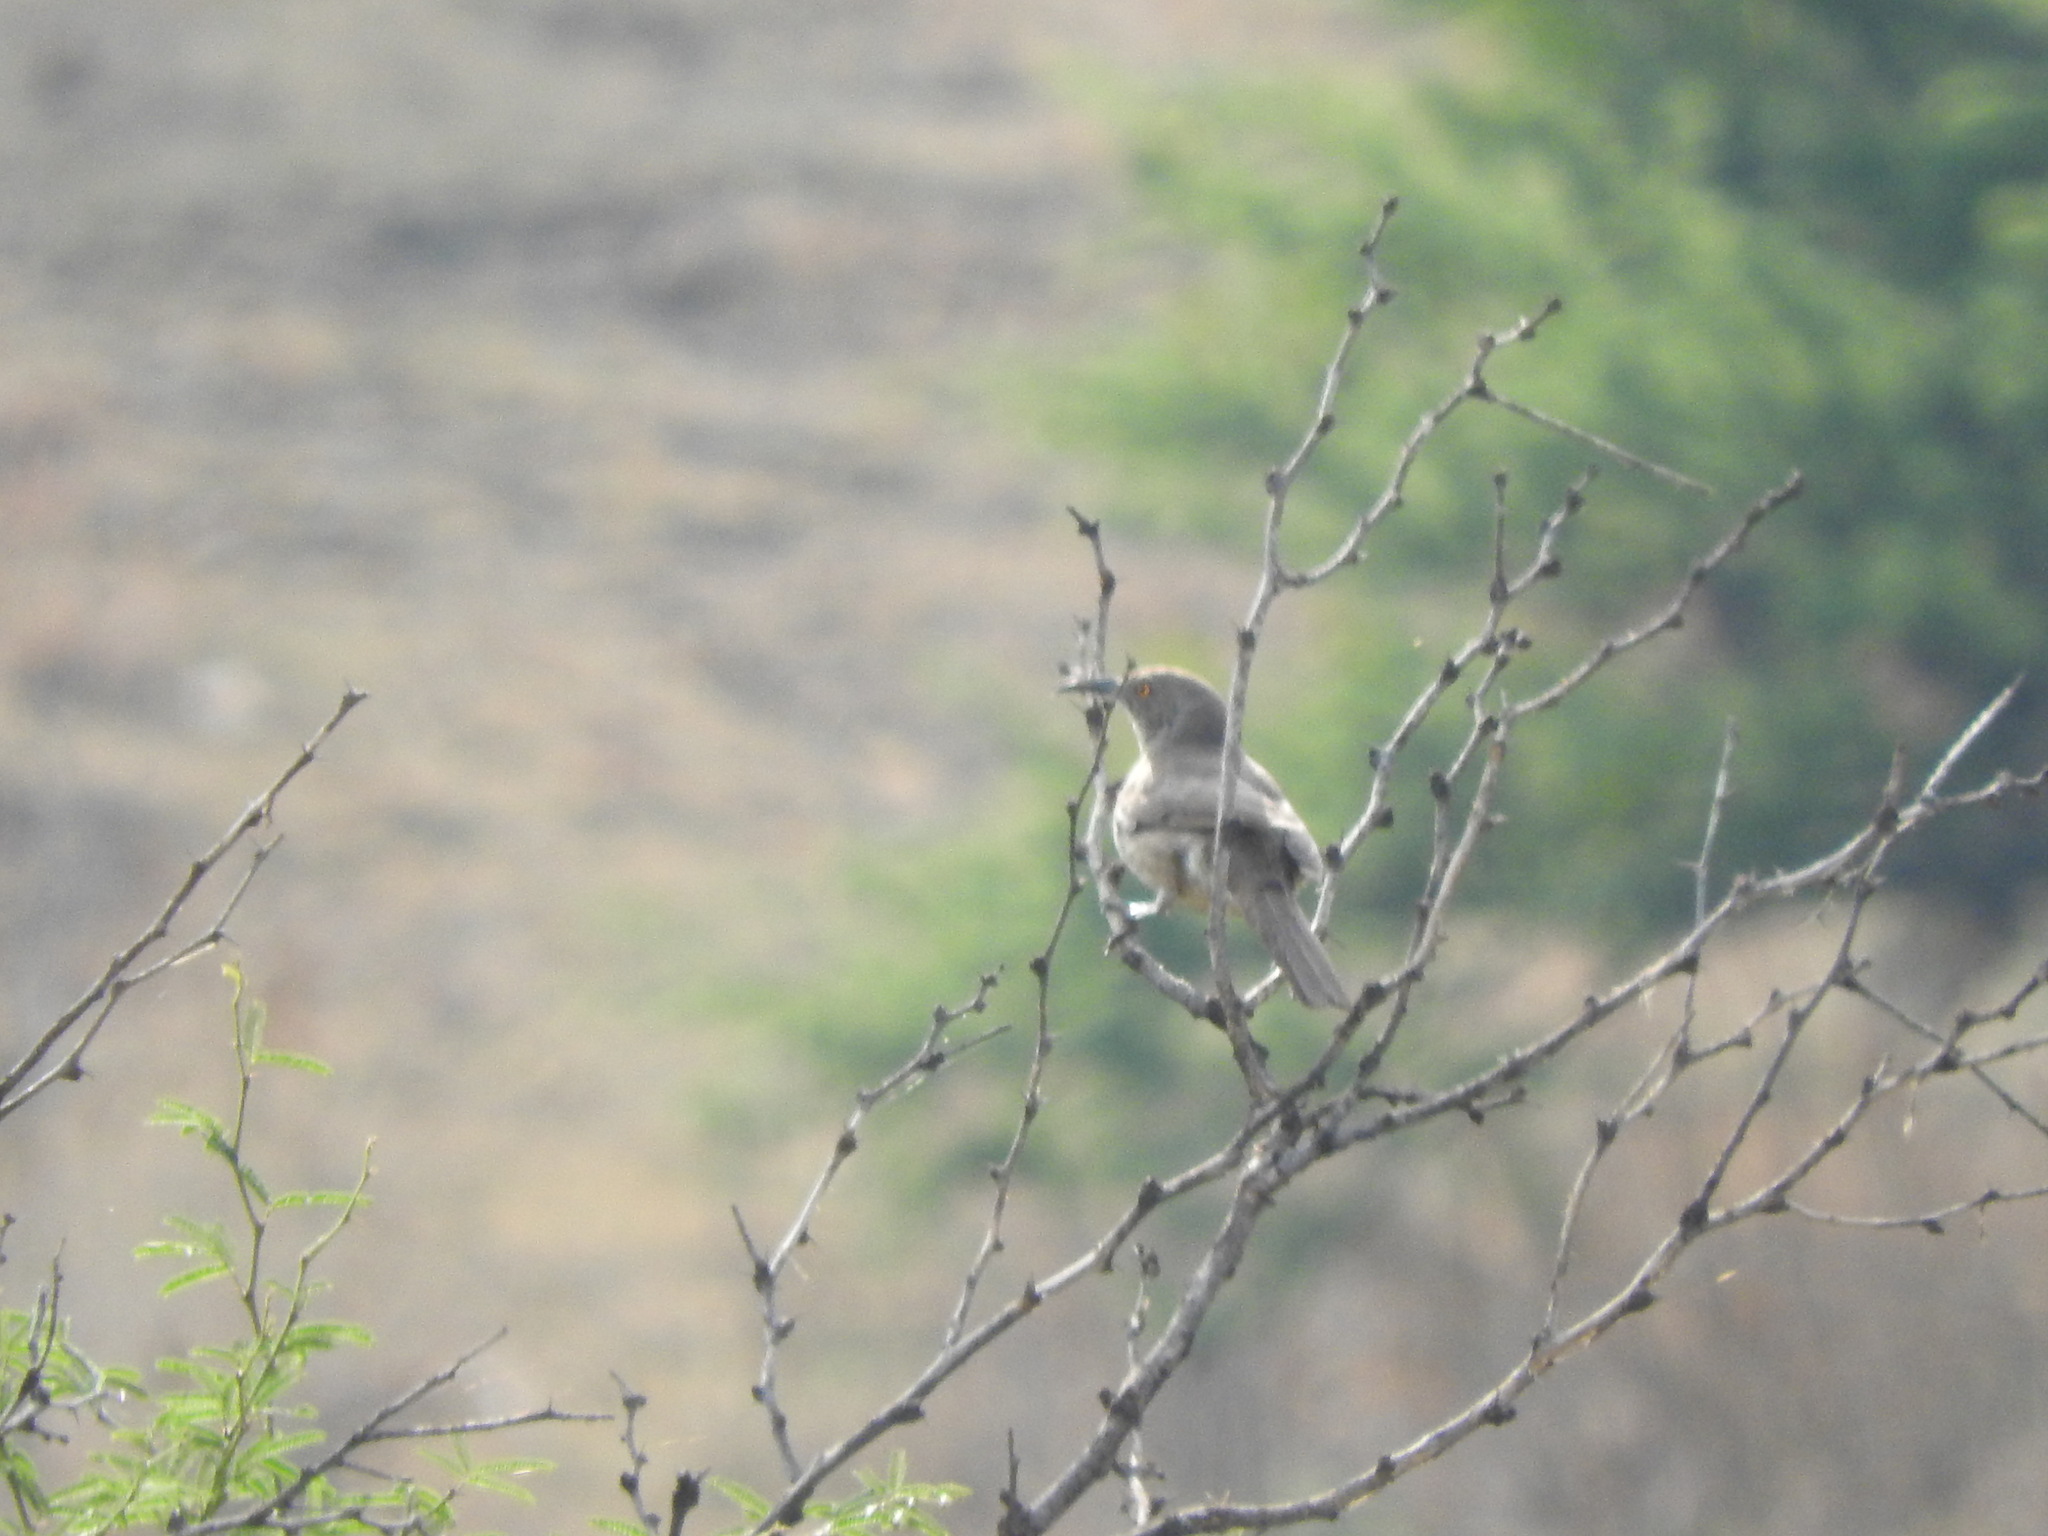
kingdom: Animalia
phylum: Chordata
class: Aves
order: Passeriformes
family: Mimidae
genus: Toxostoma
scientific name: Toxostoma curvirostre
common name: Curve-billed thrasher
